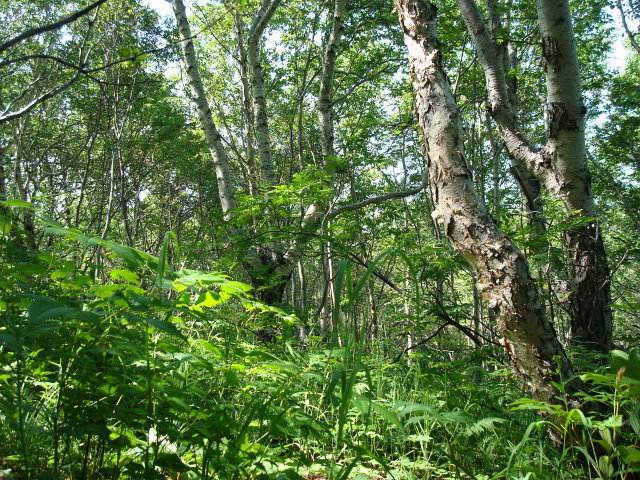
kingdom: Plantae
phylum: Tracheophyta
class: Magnoliopsida
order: Fagales
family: Betulaceae
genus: Betula
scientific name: Betula ermanii
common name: Erman's birch
